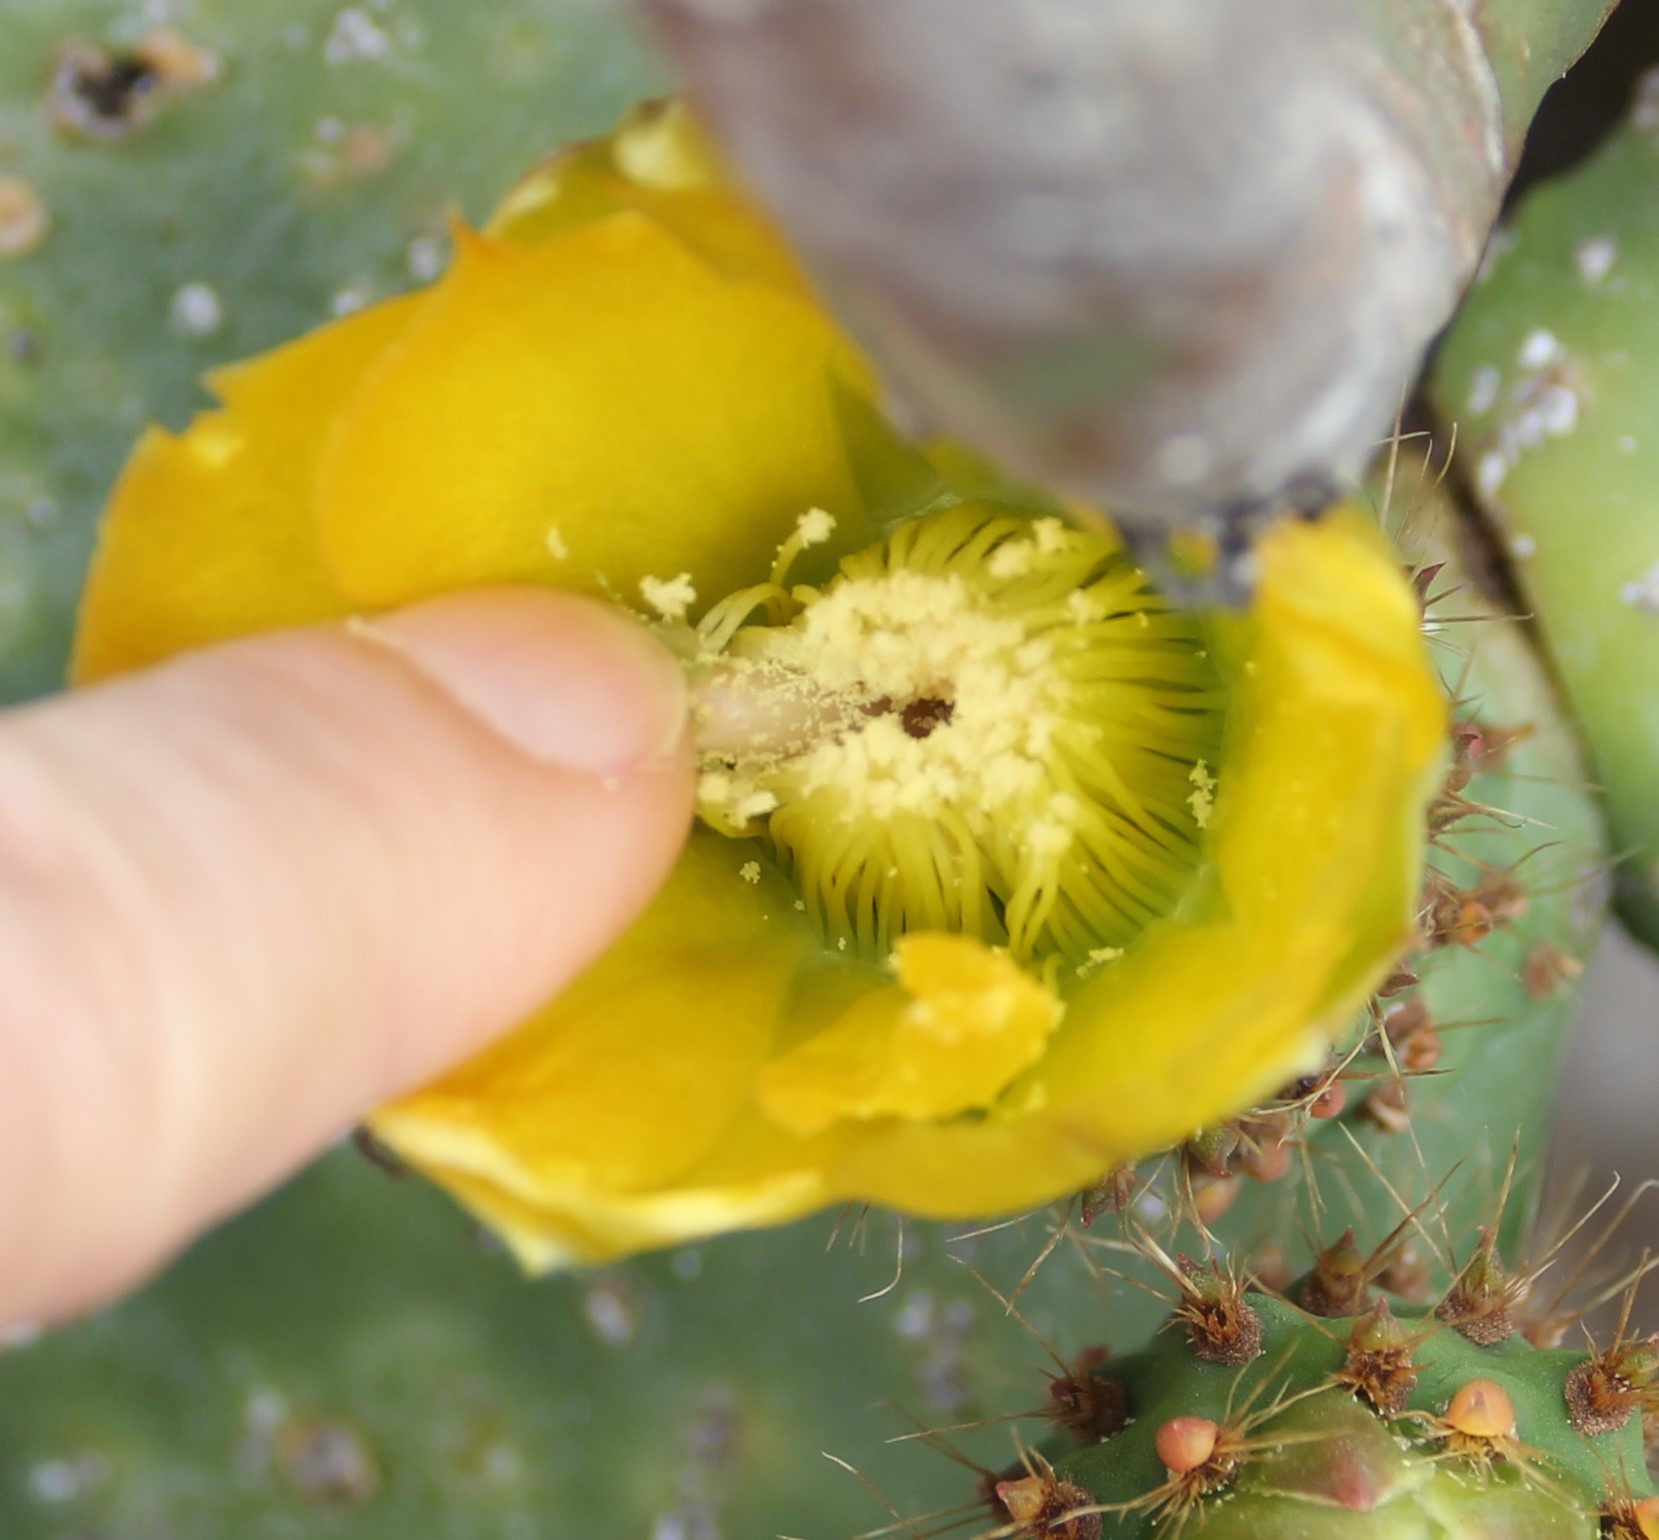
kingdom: Plantae
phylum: Tracheophyta
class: Magnoliopsida
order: Caryophyllales
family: Cactaceae
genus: Opuntia
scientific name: Opuntia ficus-indica
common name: Barbary fig
